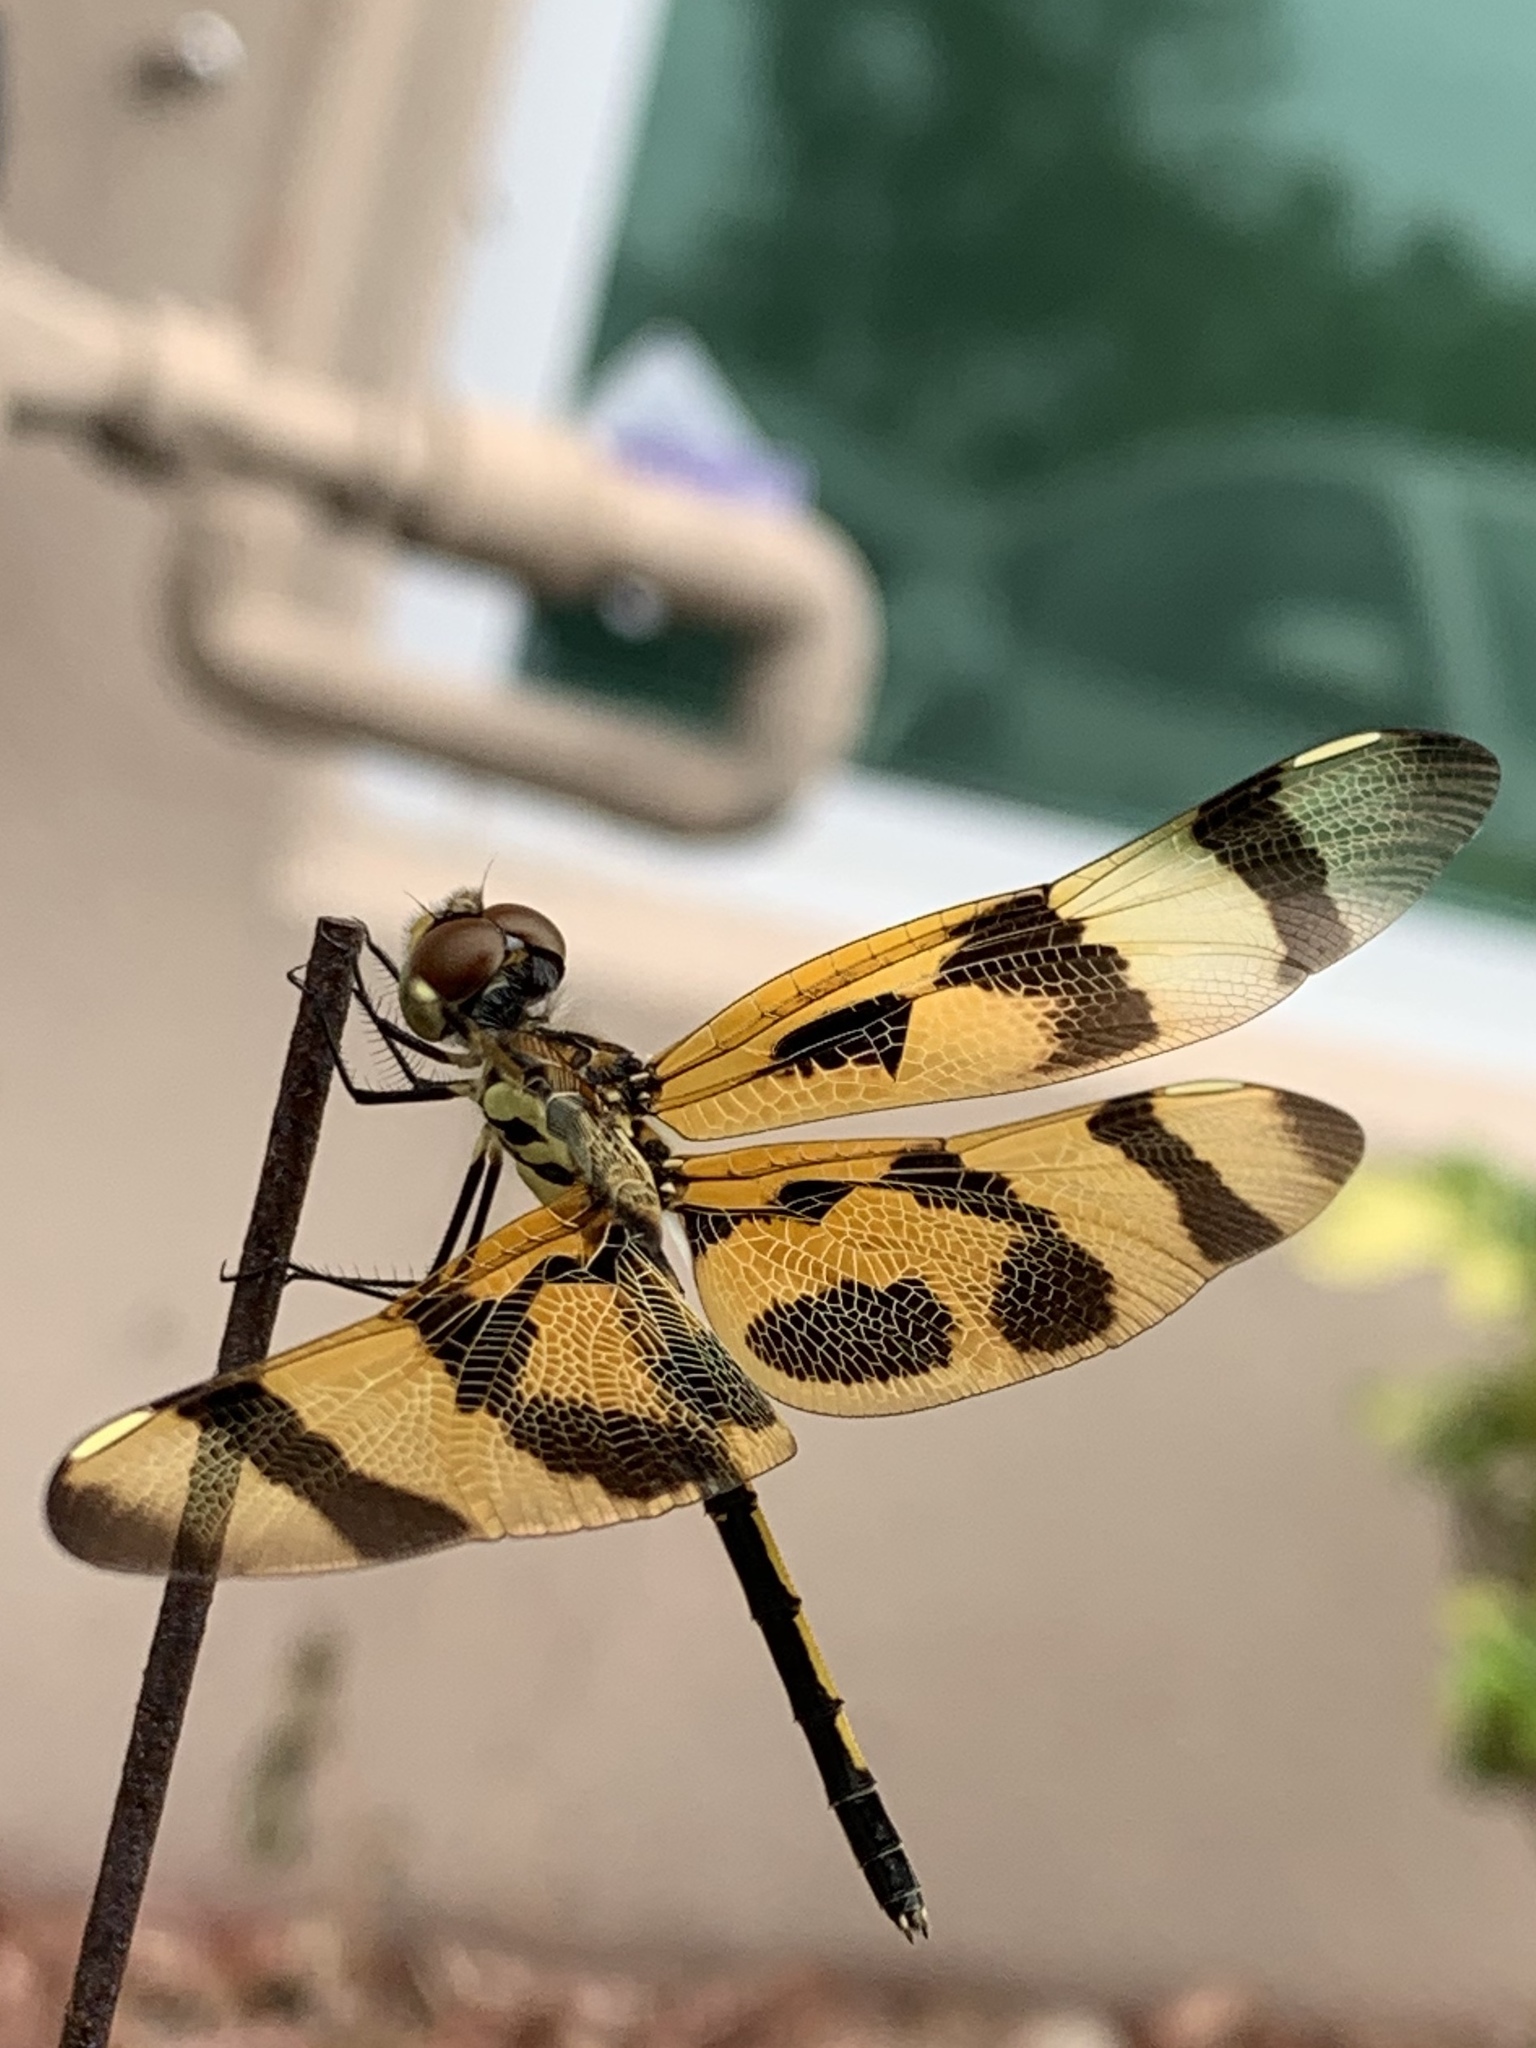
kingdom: Animalia
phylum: Arthropoda
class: Insecta
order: Odonata
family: Libellulidae
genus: Celithemis
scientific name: Celithemis eponina
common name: Halloween pennant
